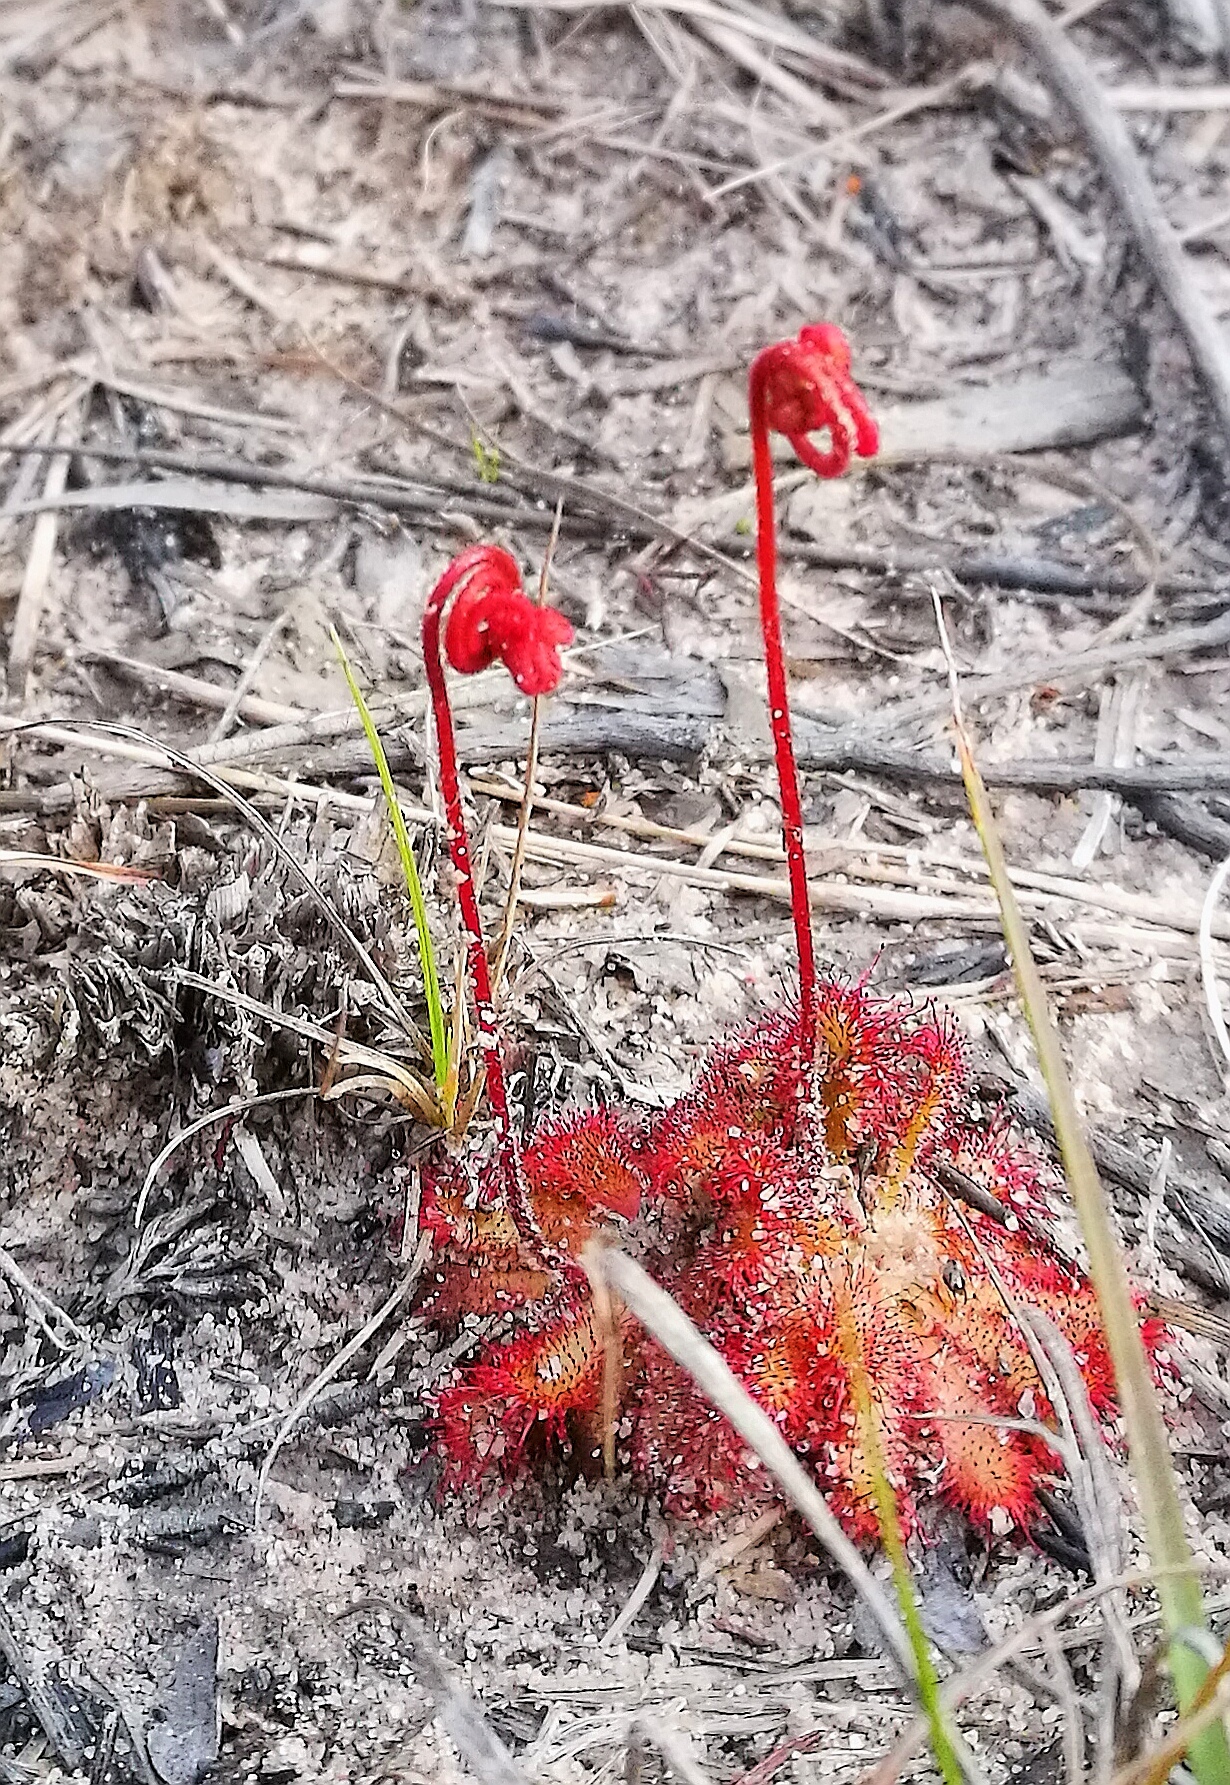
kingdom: Plantae
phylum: Tracheophyta
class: Magnoliopsida
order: Caryophyllales
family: Droseraceae
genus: Drosera
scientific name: Drosera aliciae
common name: Alice sundew
